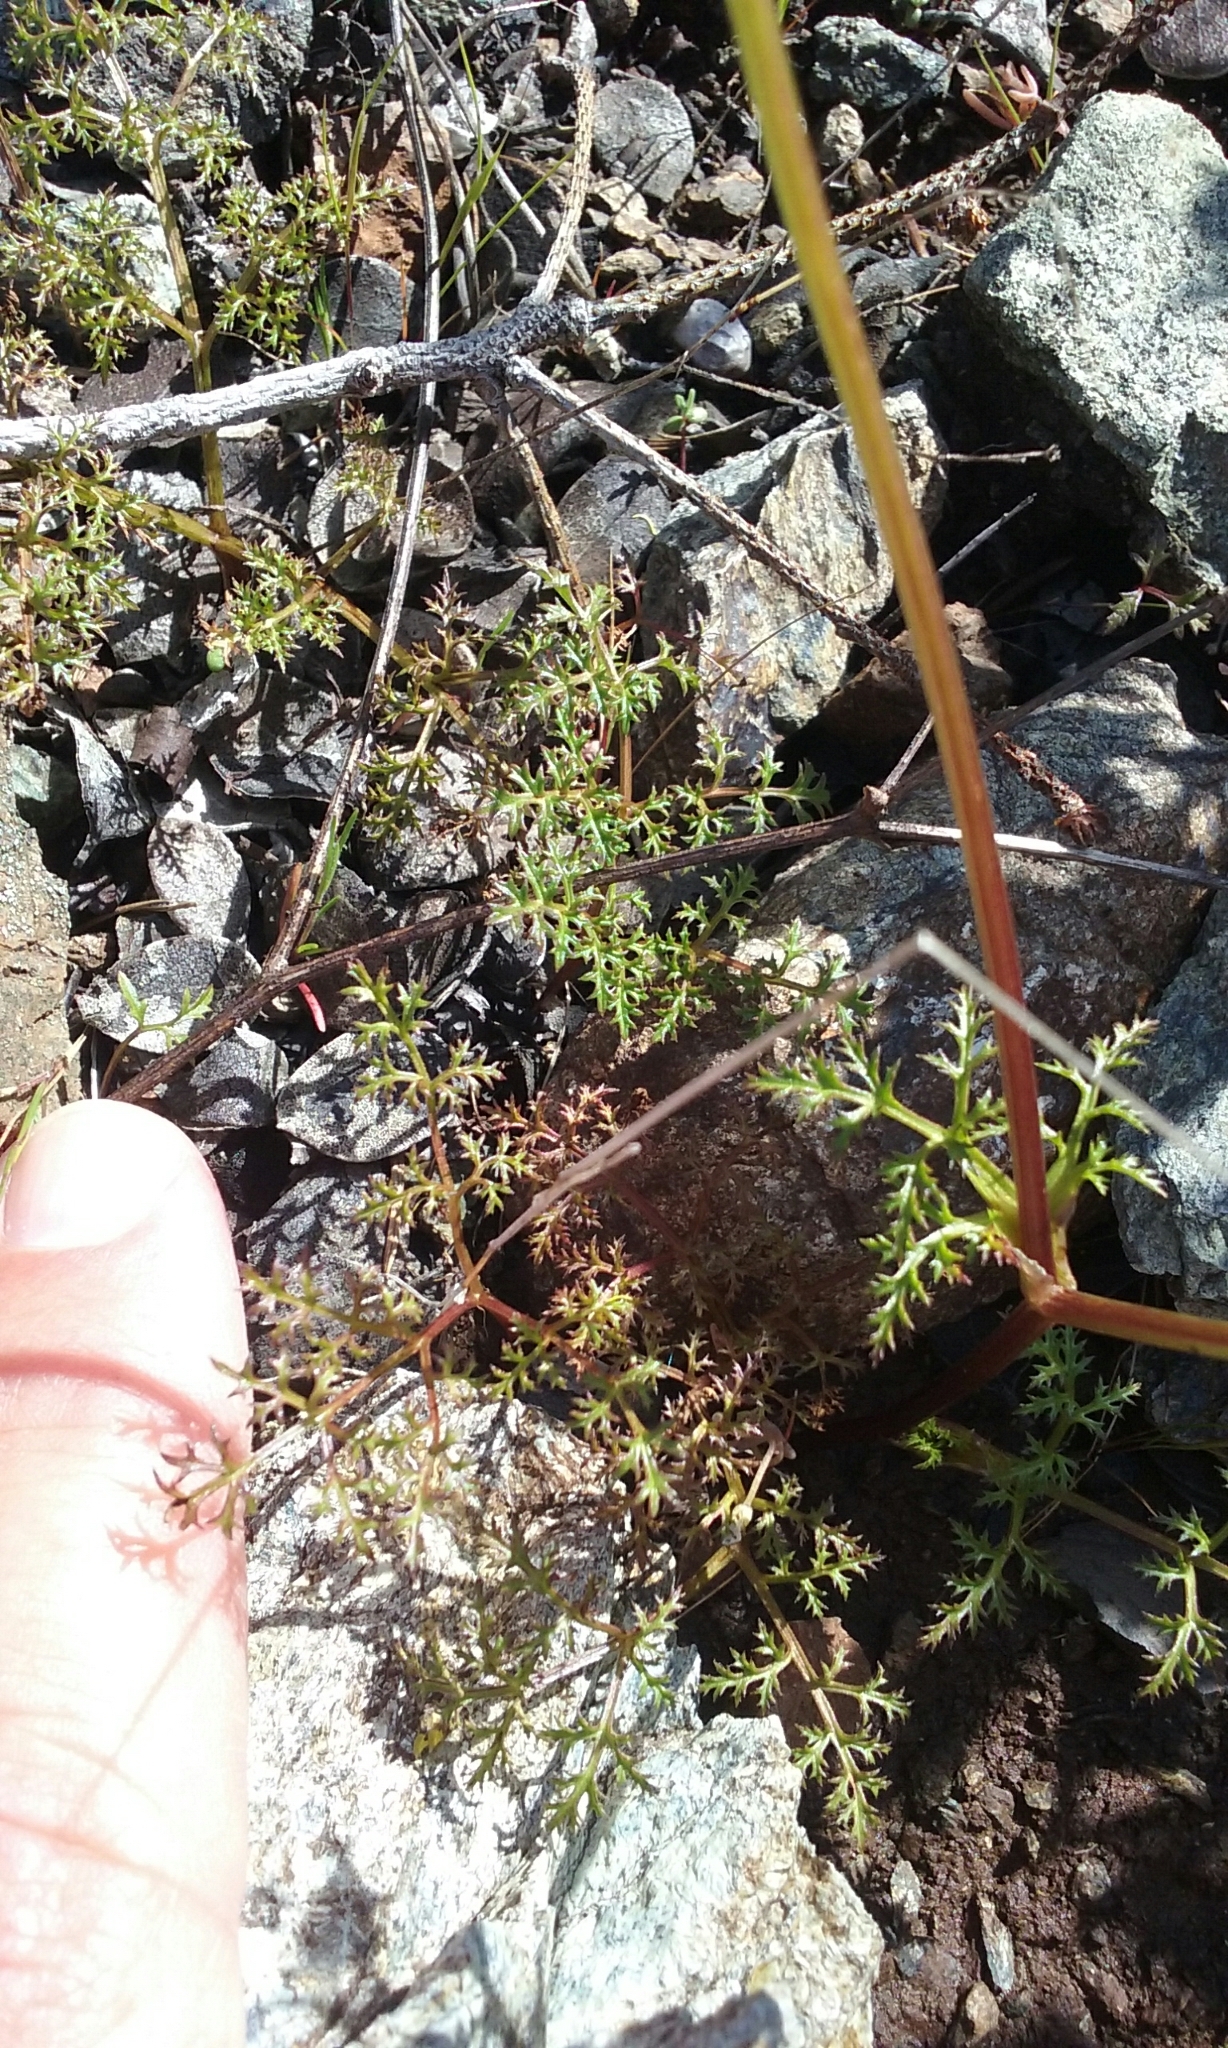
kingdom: Plantae
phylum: Tracheophyta
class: Magnoliopsida
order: Apiales
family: Apiaceae
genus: Sanicula
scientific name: Sanicula tuberosa
